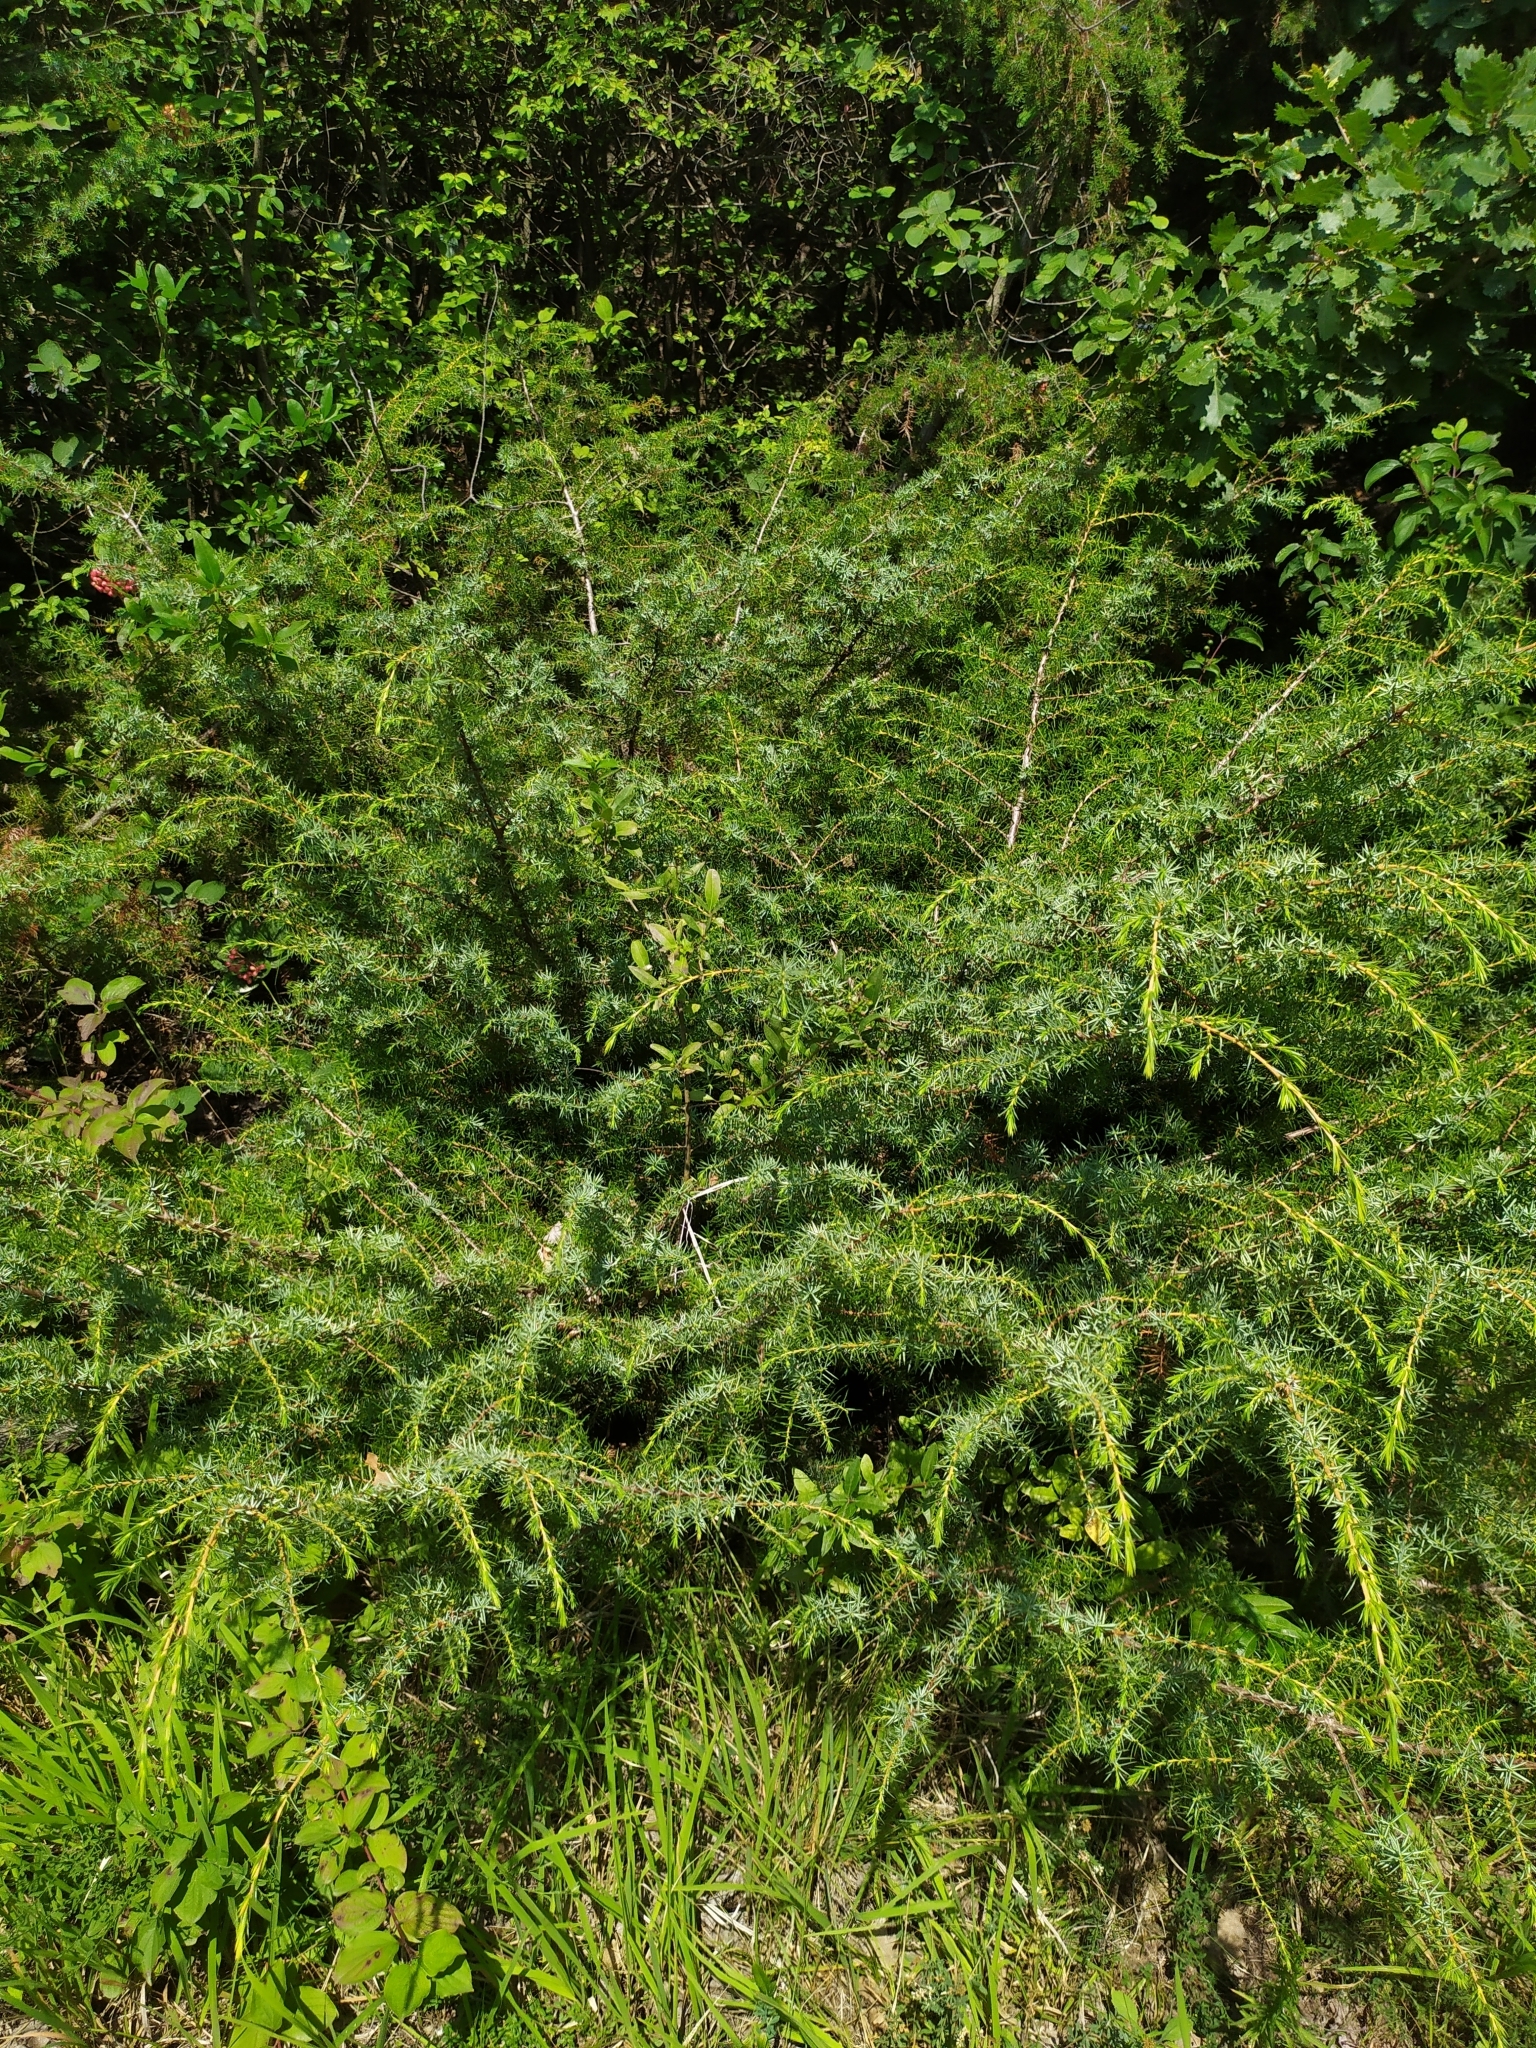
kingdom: Plantae
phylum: Tracheophyta
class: Pinopsida
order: Pinales
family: Cupressaceae
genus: Juniperus
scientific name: Juniperus communis
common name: Common juniper
